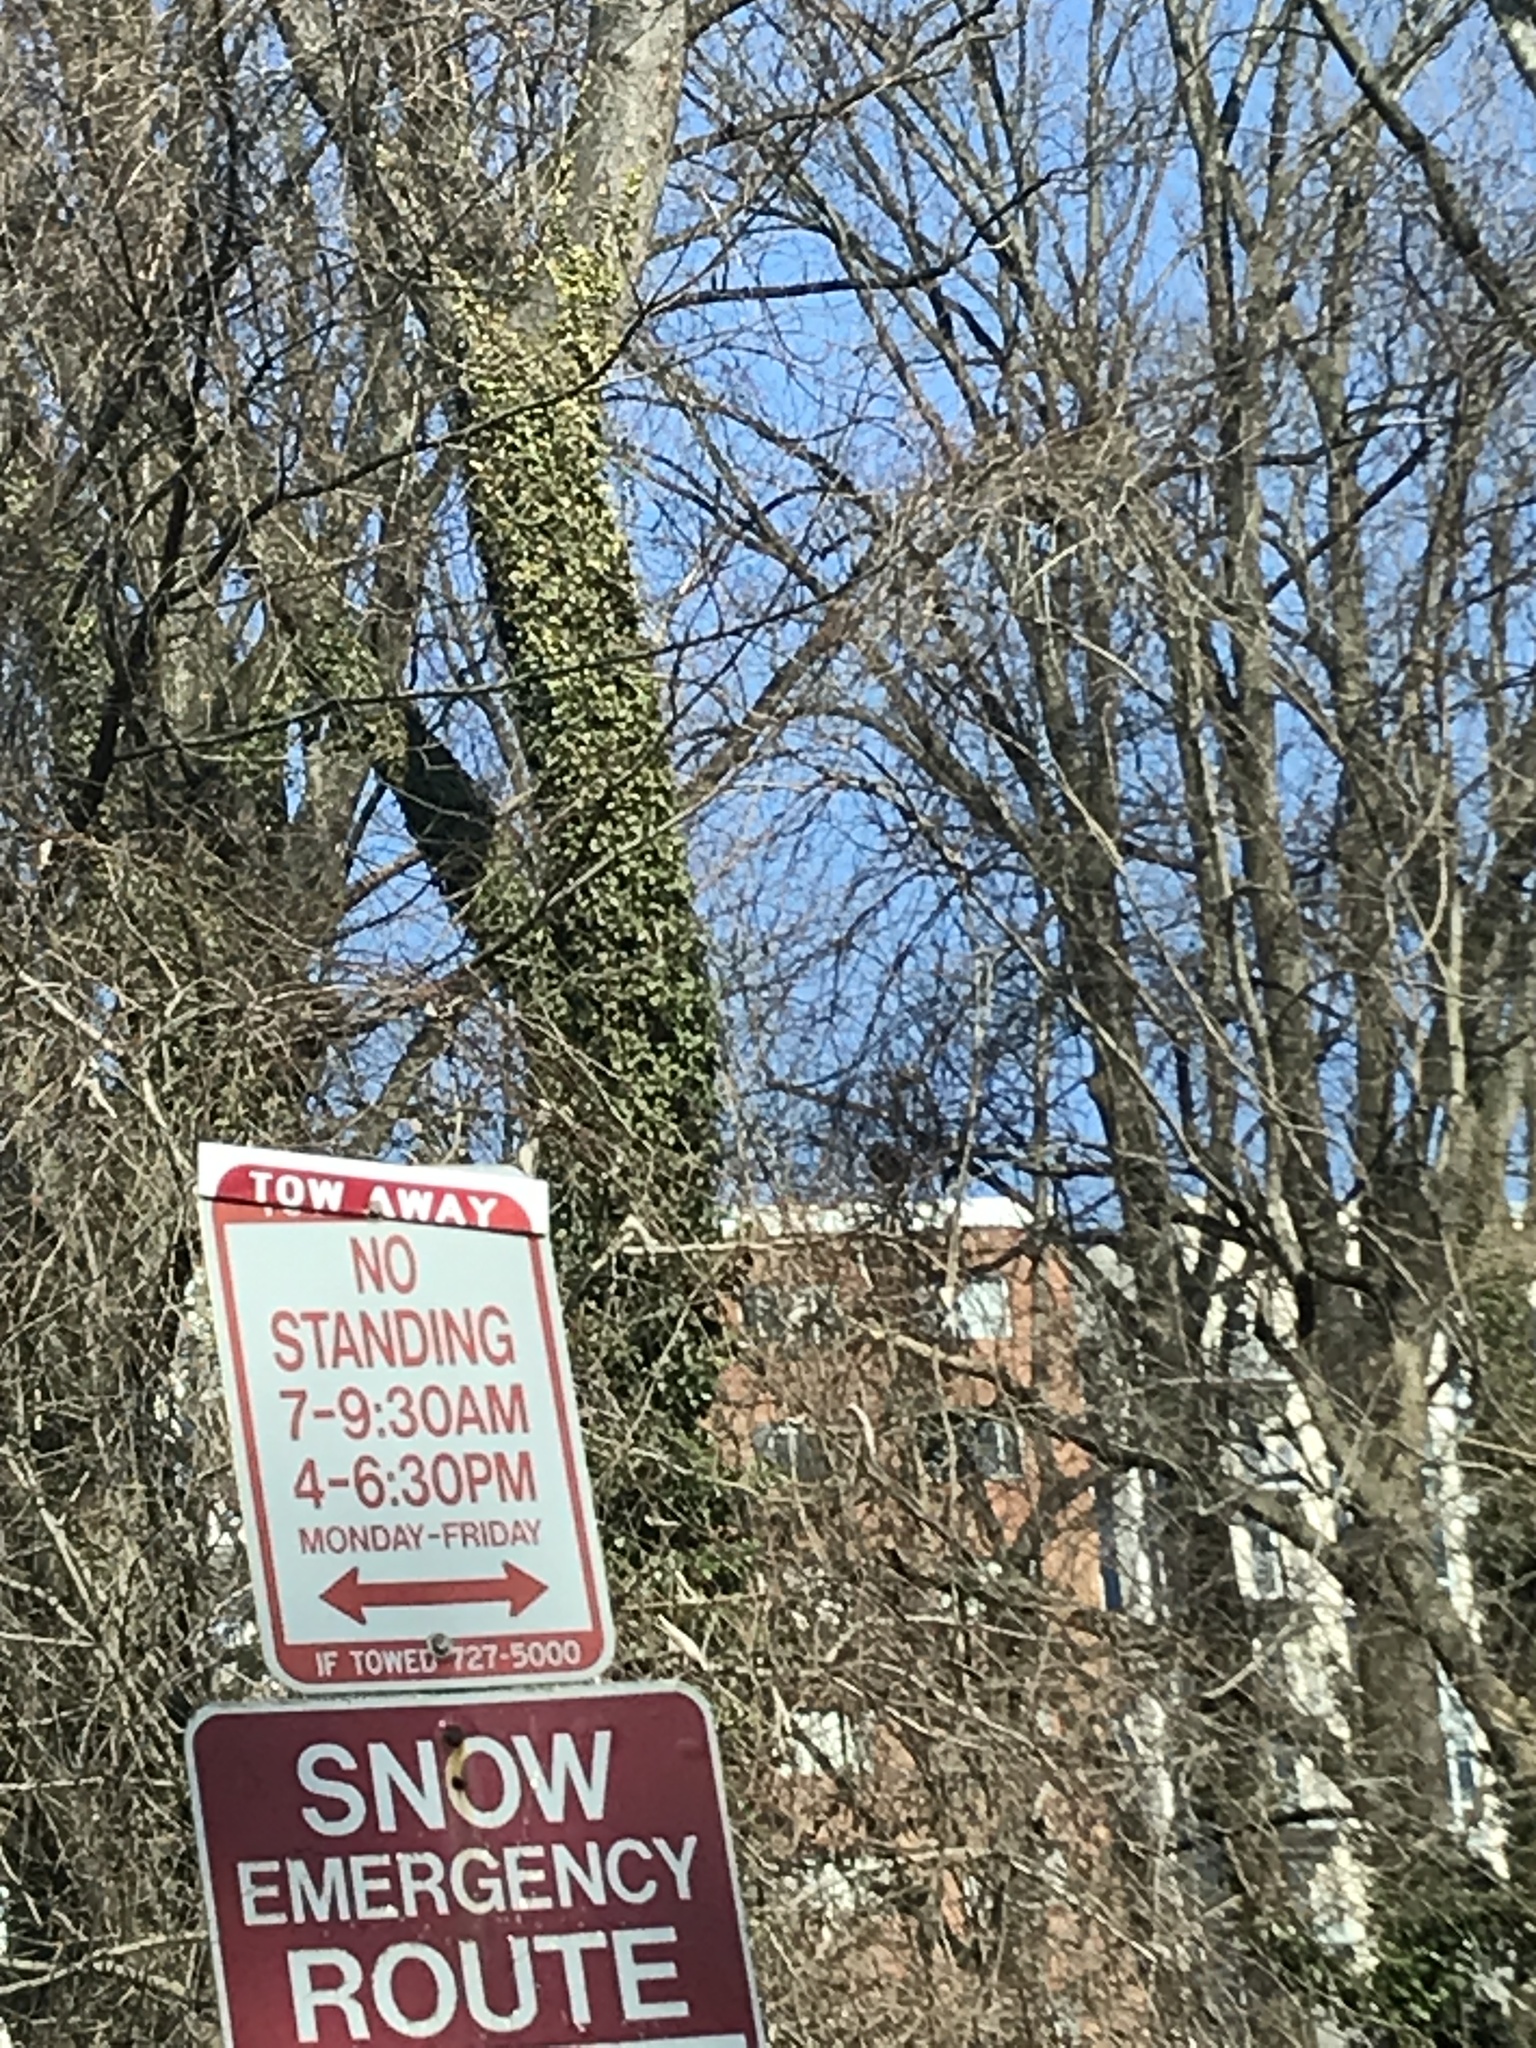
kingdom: Plantae
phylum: Tracheophyta
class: Magnoliopsida
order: Apiales
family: Araliaceae
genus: Hedera
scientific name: Hedera helix
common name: Ivy
